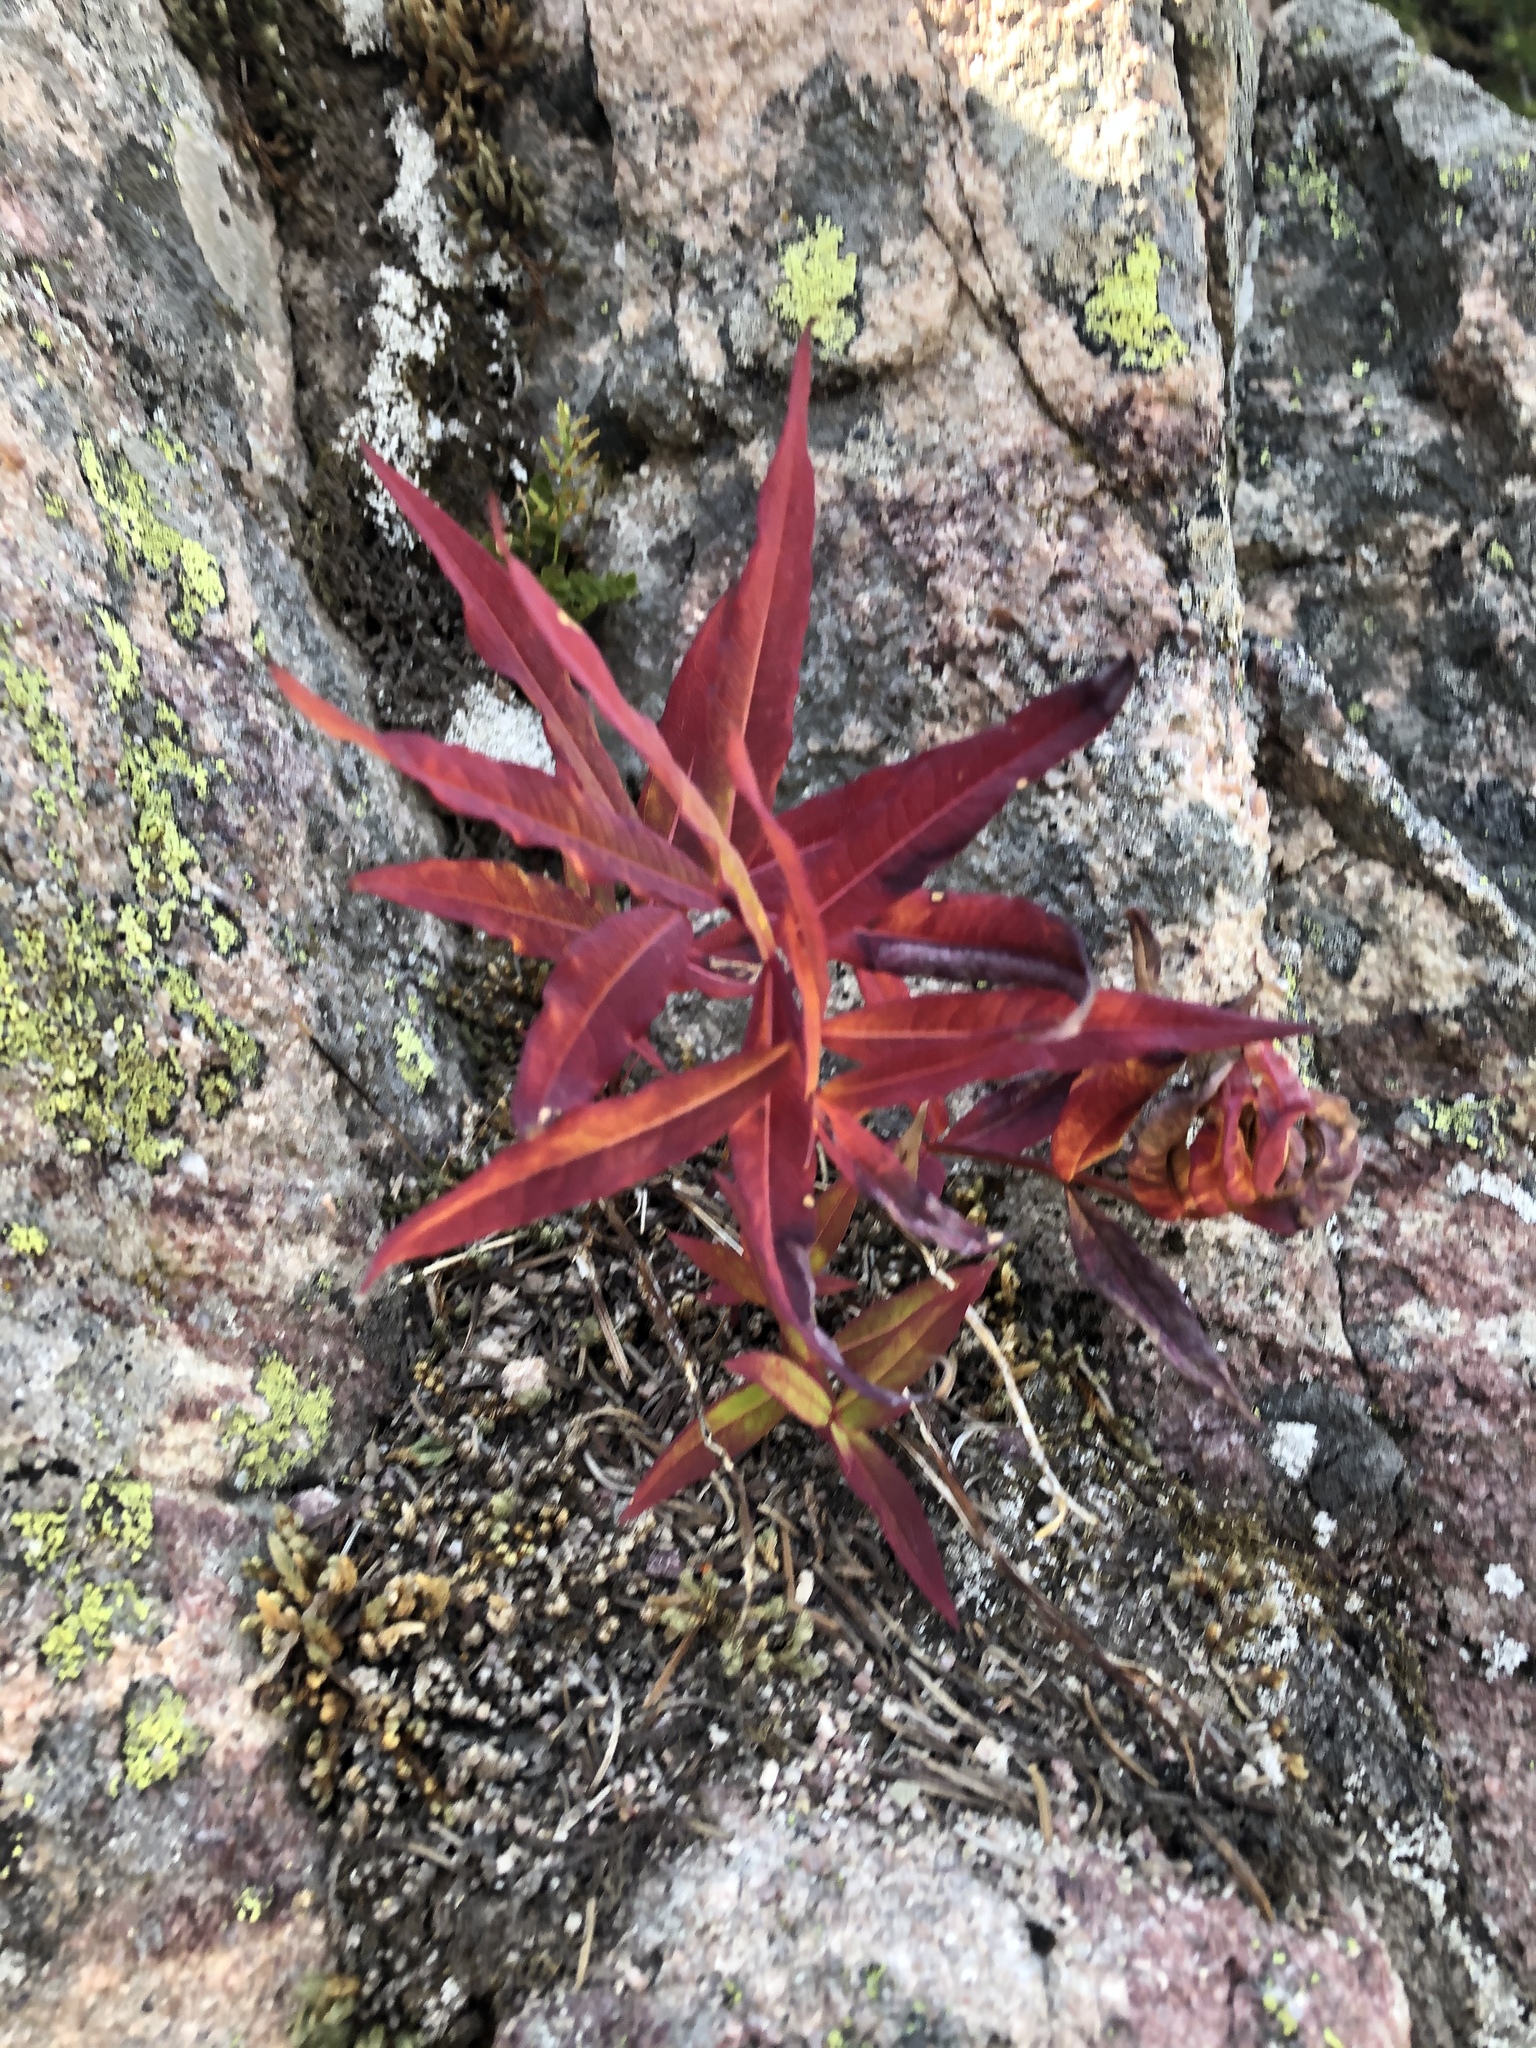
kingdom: Plantae
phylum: Tracheophyta
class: Magnoliopsida
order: Myrtales
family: Onagraceae
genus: Chamaenerion
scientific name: Chamaenerion angustifolium
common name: Fireweed
